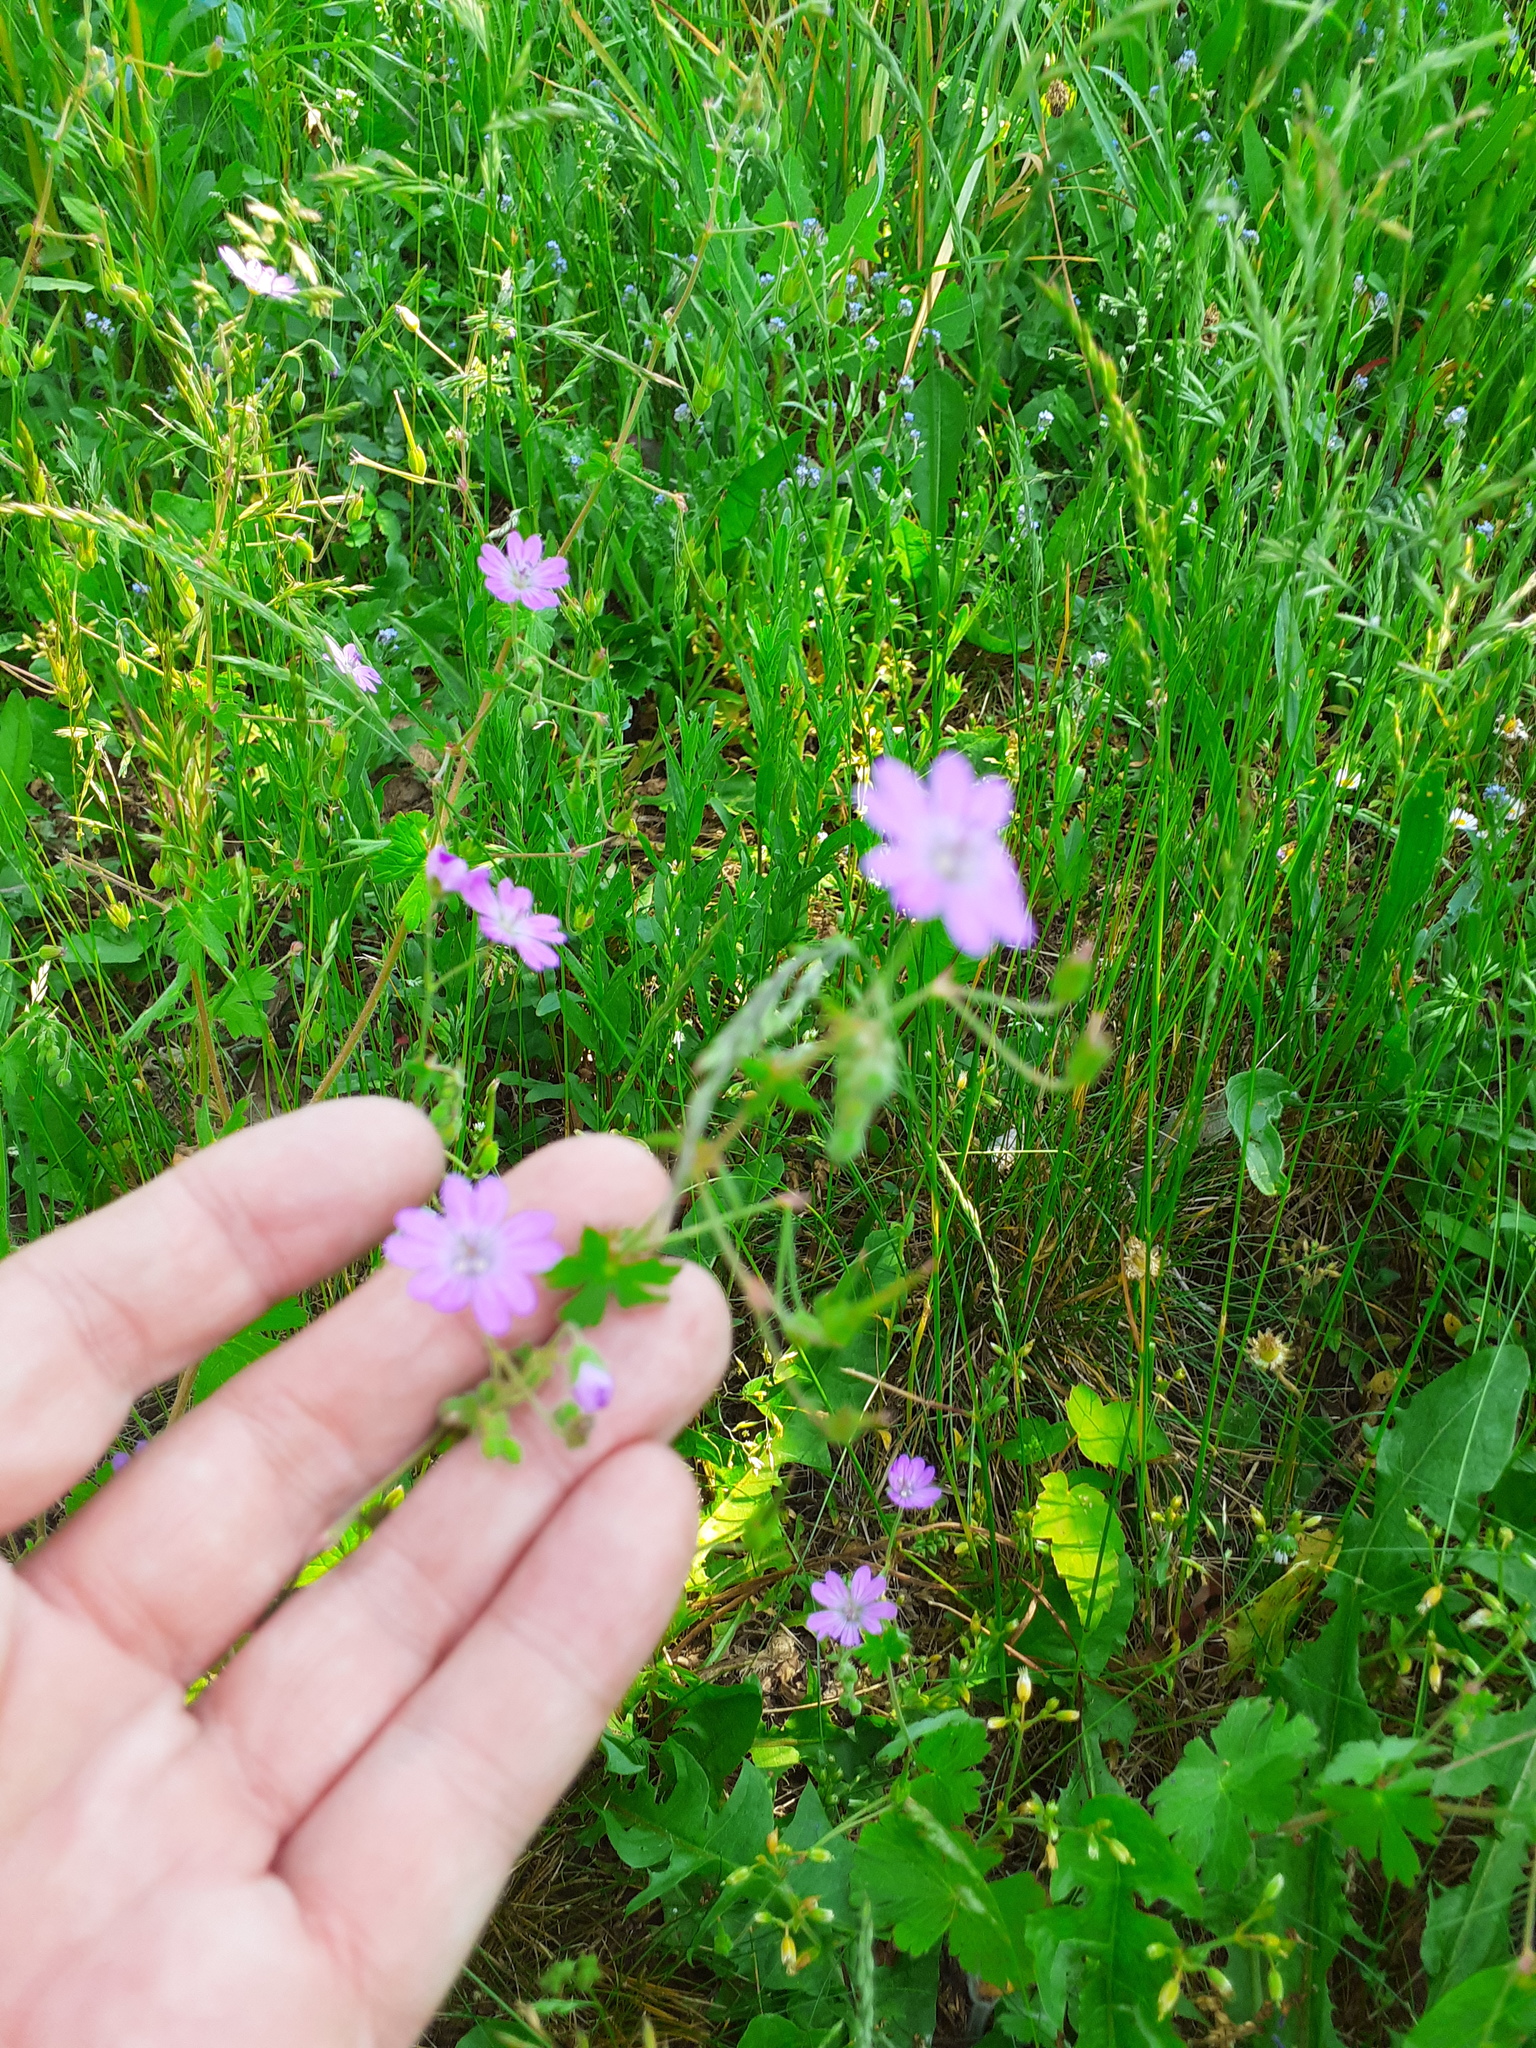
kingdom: Plantae
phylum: Tracheophyta
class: Magnoliopsida
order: Geraniales
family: Geraniaceae
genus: Geranium
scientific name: Geranium pyrenaicum
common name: Hedgerow crane's-bill
